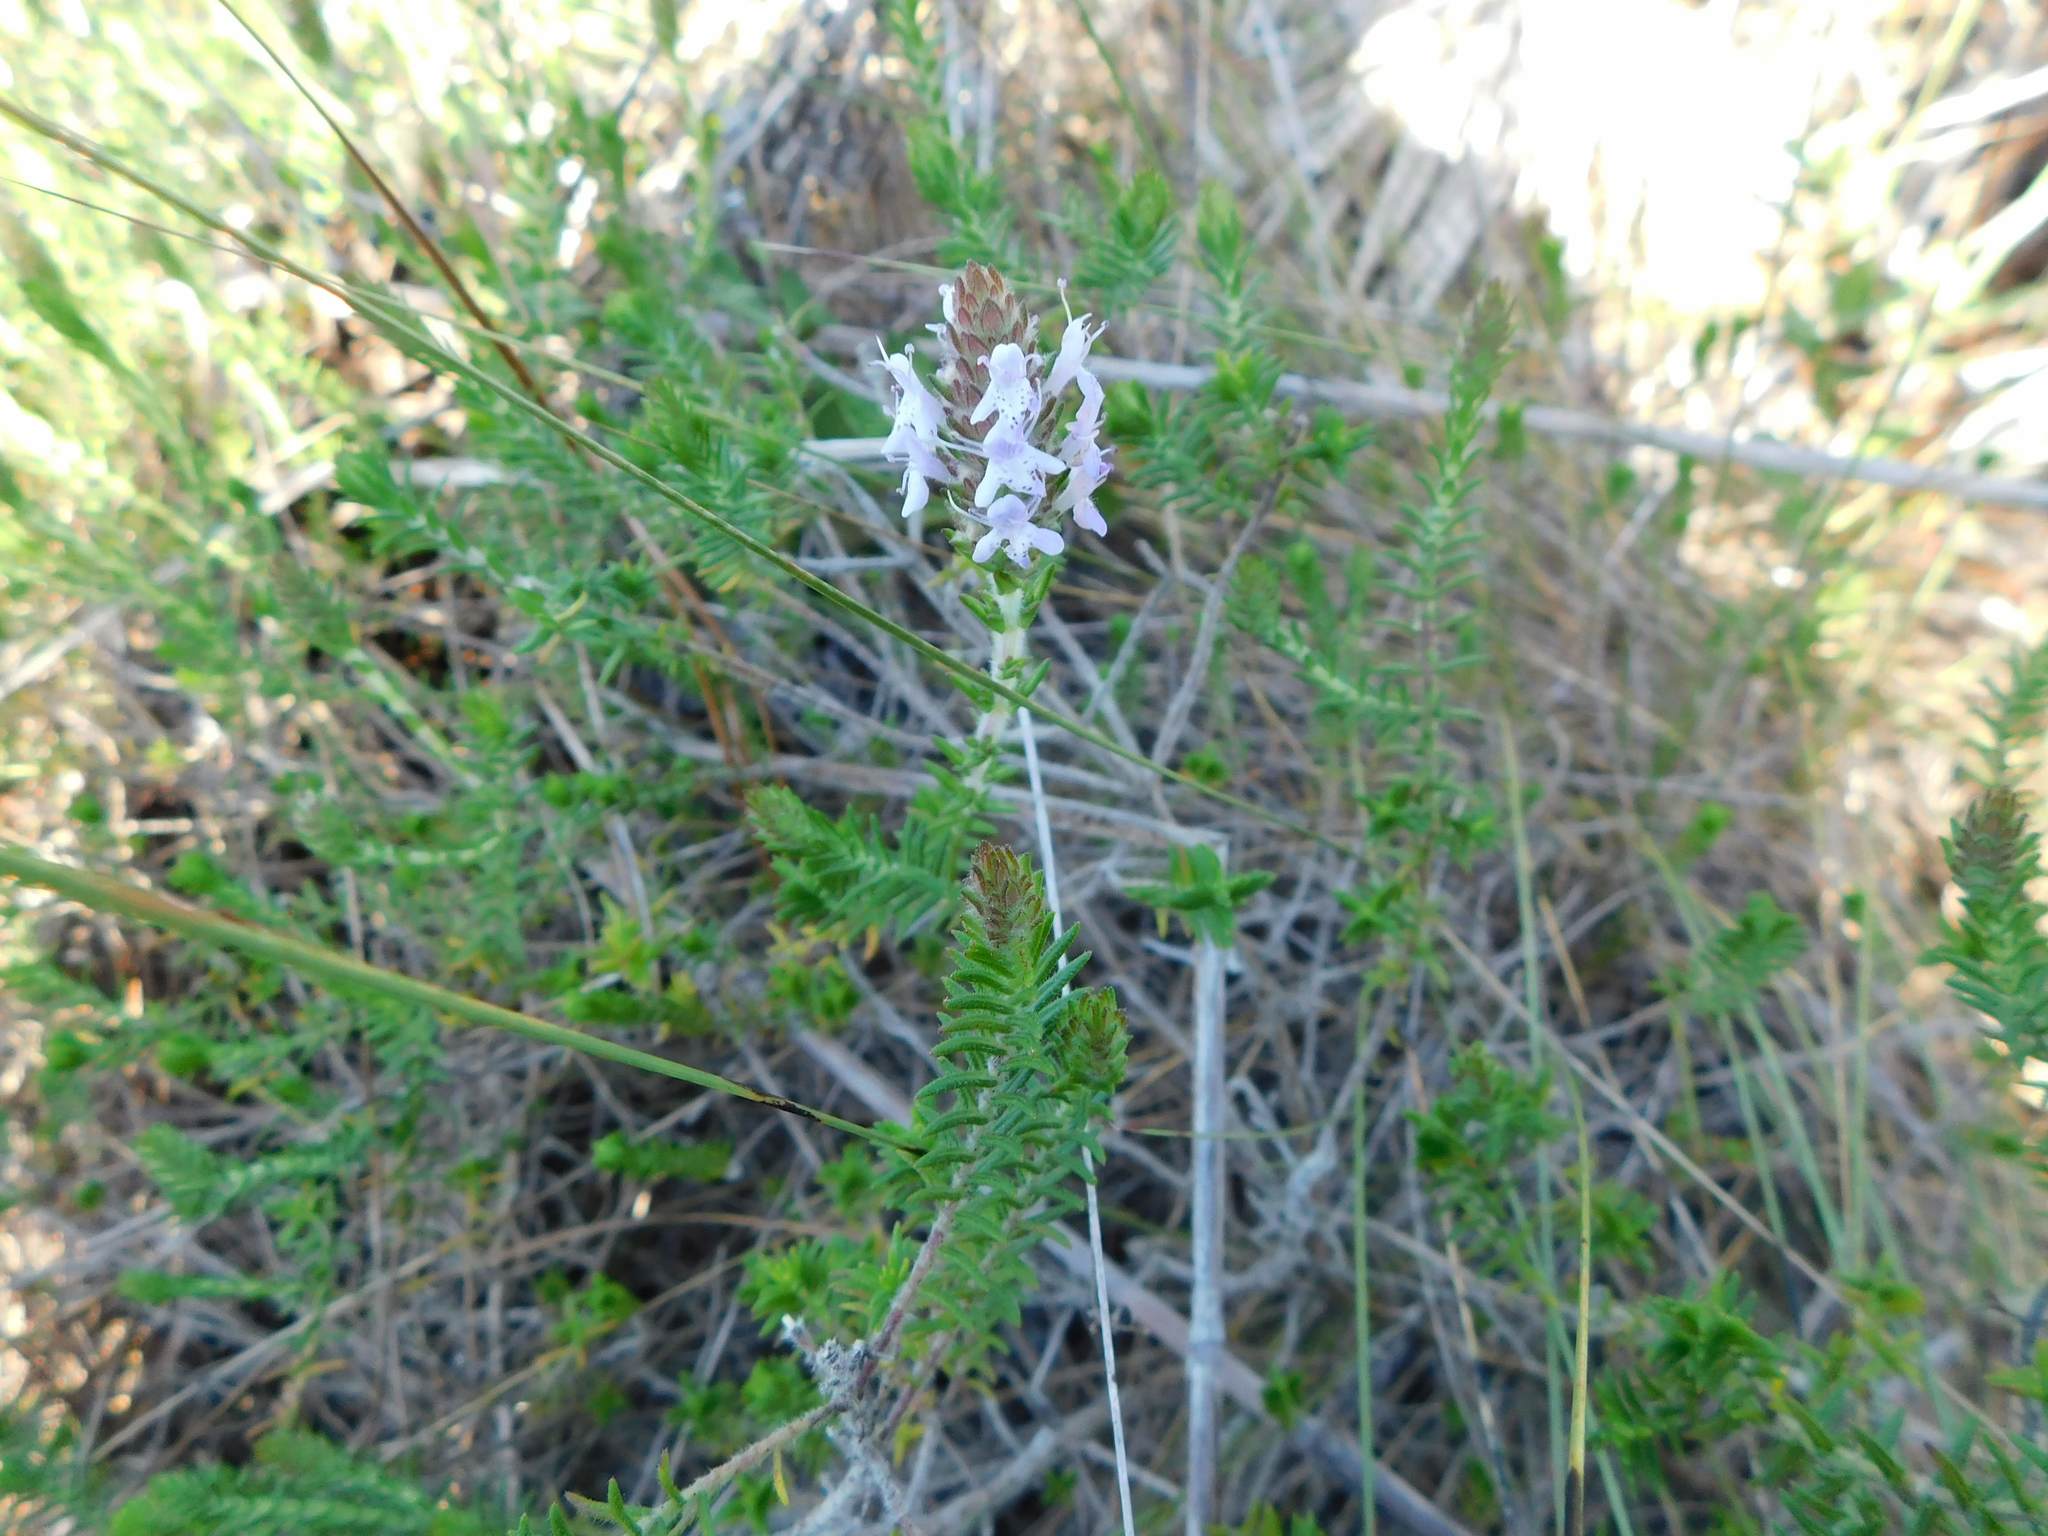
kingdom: Plantae
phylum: Tracheophyta
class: Magnoliopsida
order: Lamiales
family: Lamiaceae
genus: Piloblephis
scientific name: Piloblephis rigida
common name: Wild pennyroyal
